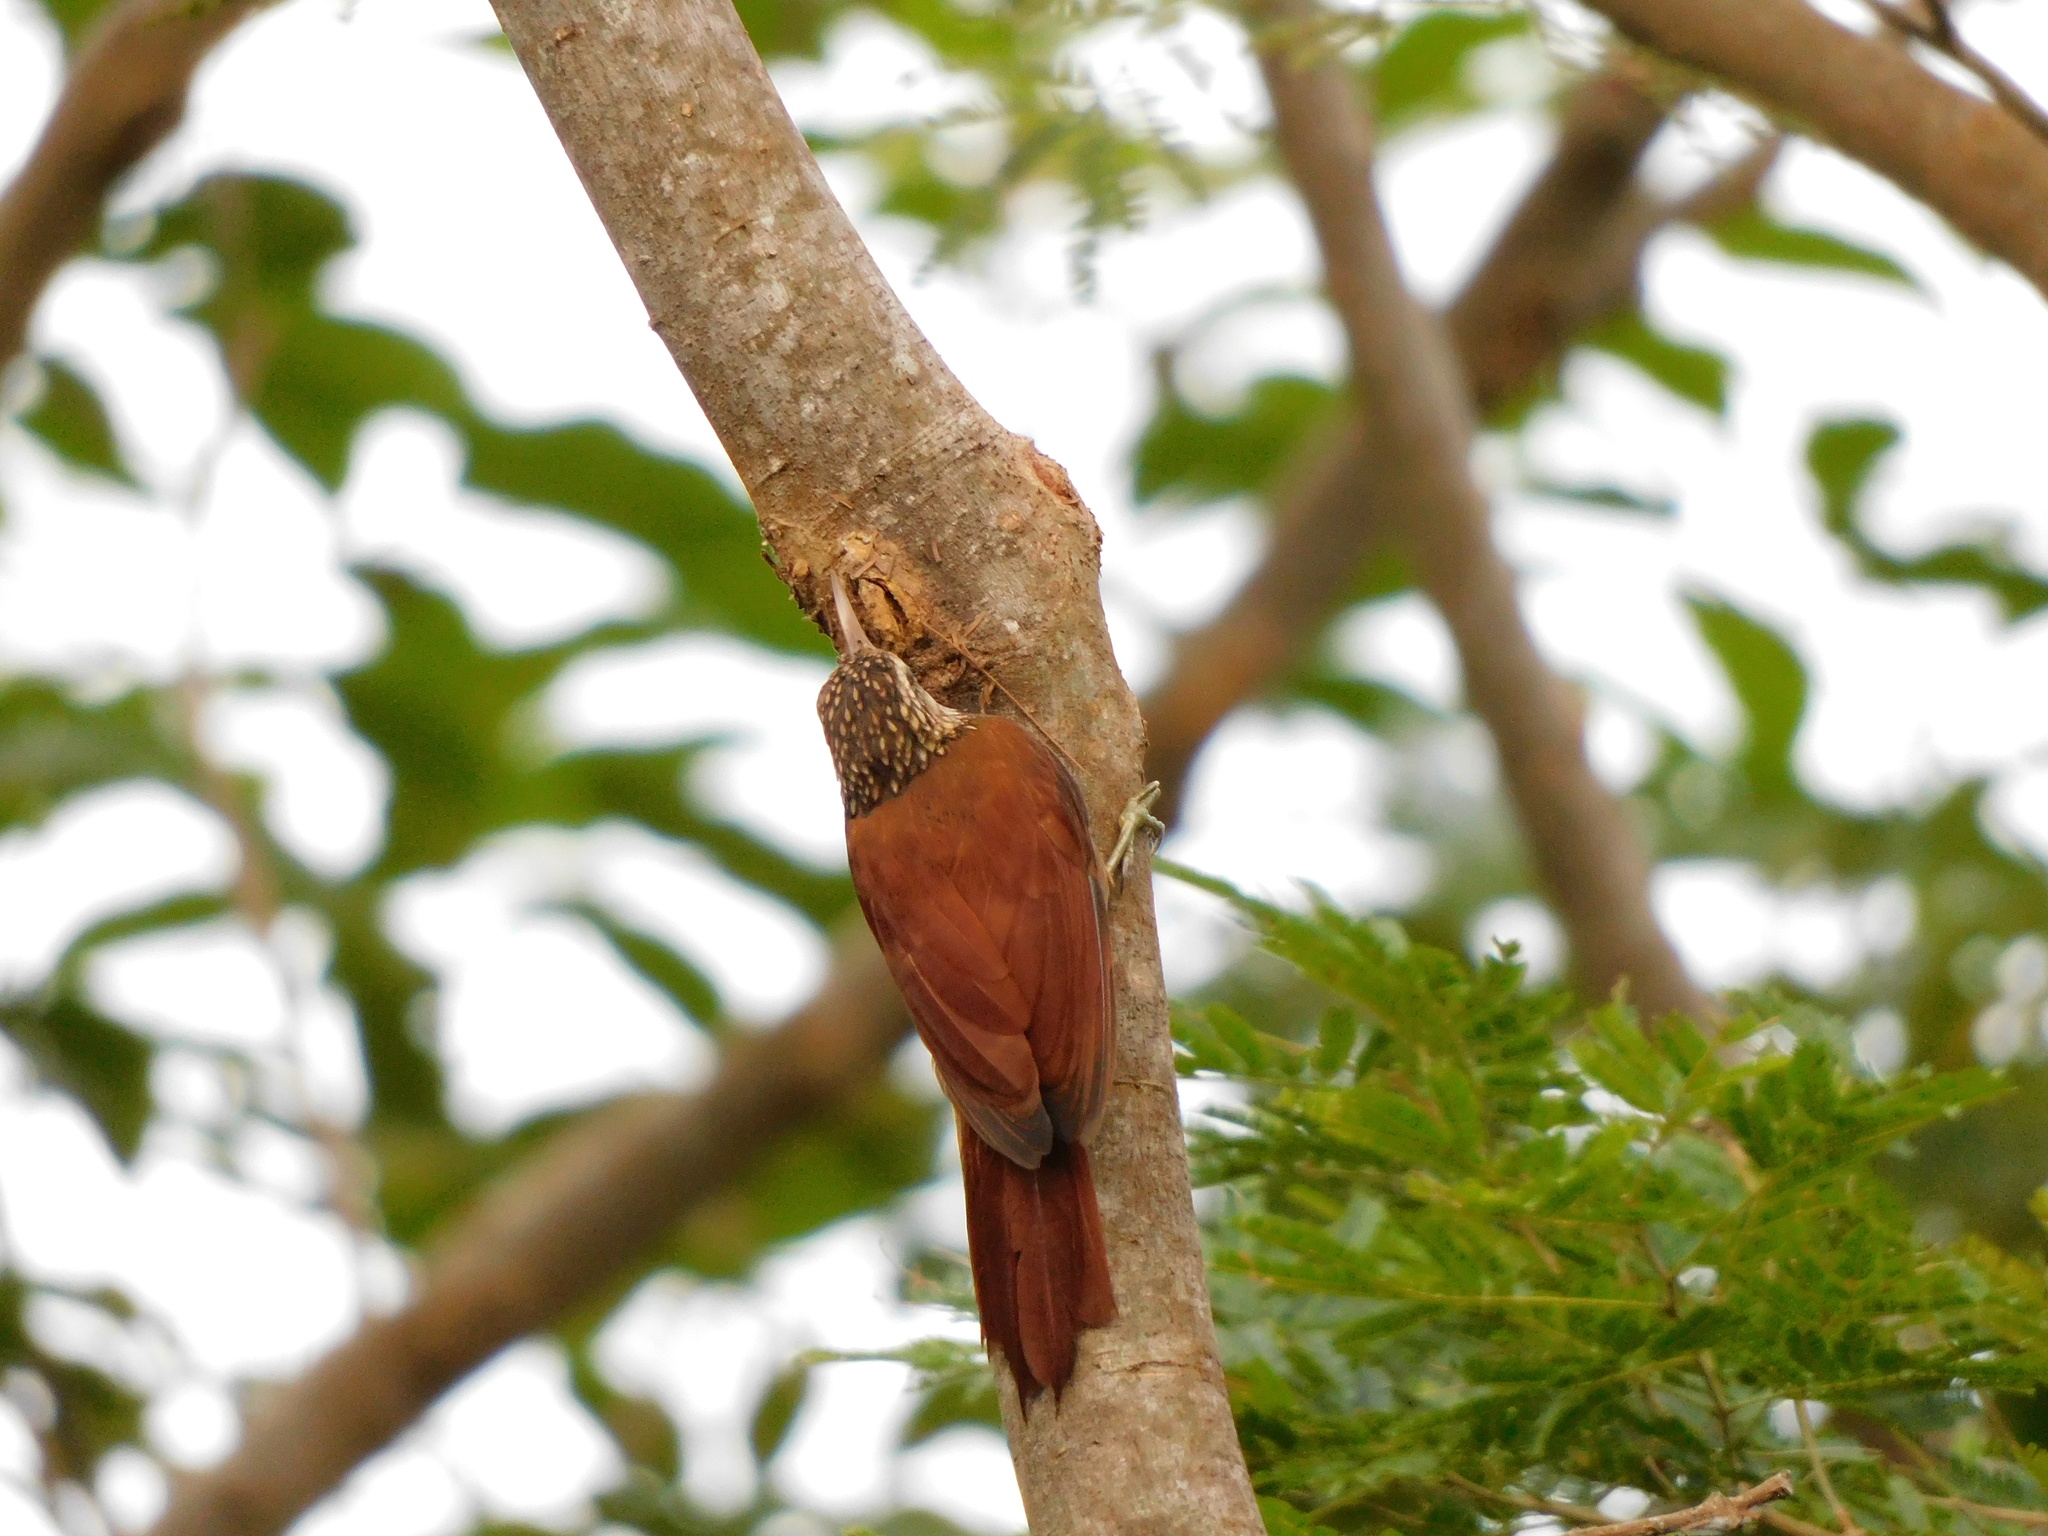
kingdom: Animalia
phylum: Chordata
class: Aves
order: Passeriformes
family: Furnariidae
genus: Xiphorhynchus
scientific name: Xiphorhynchus picus
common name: Straight-billed woodcreeper
